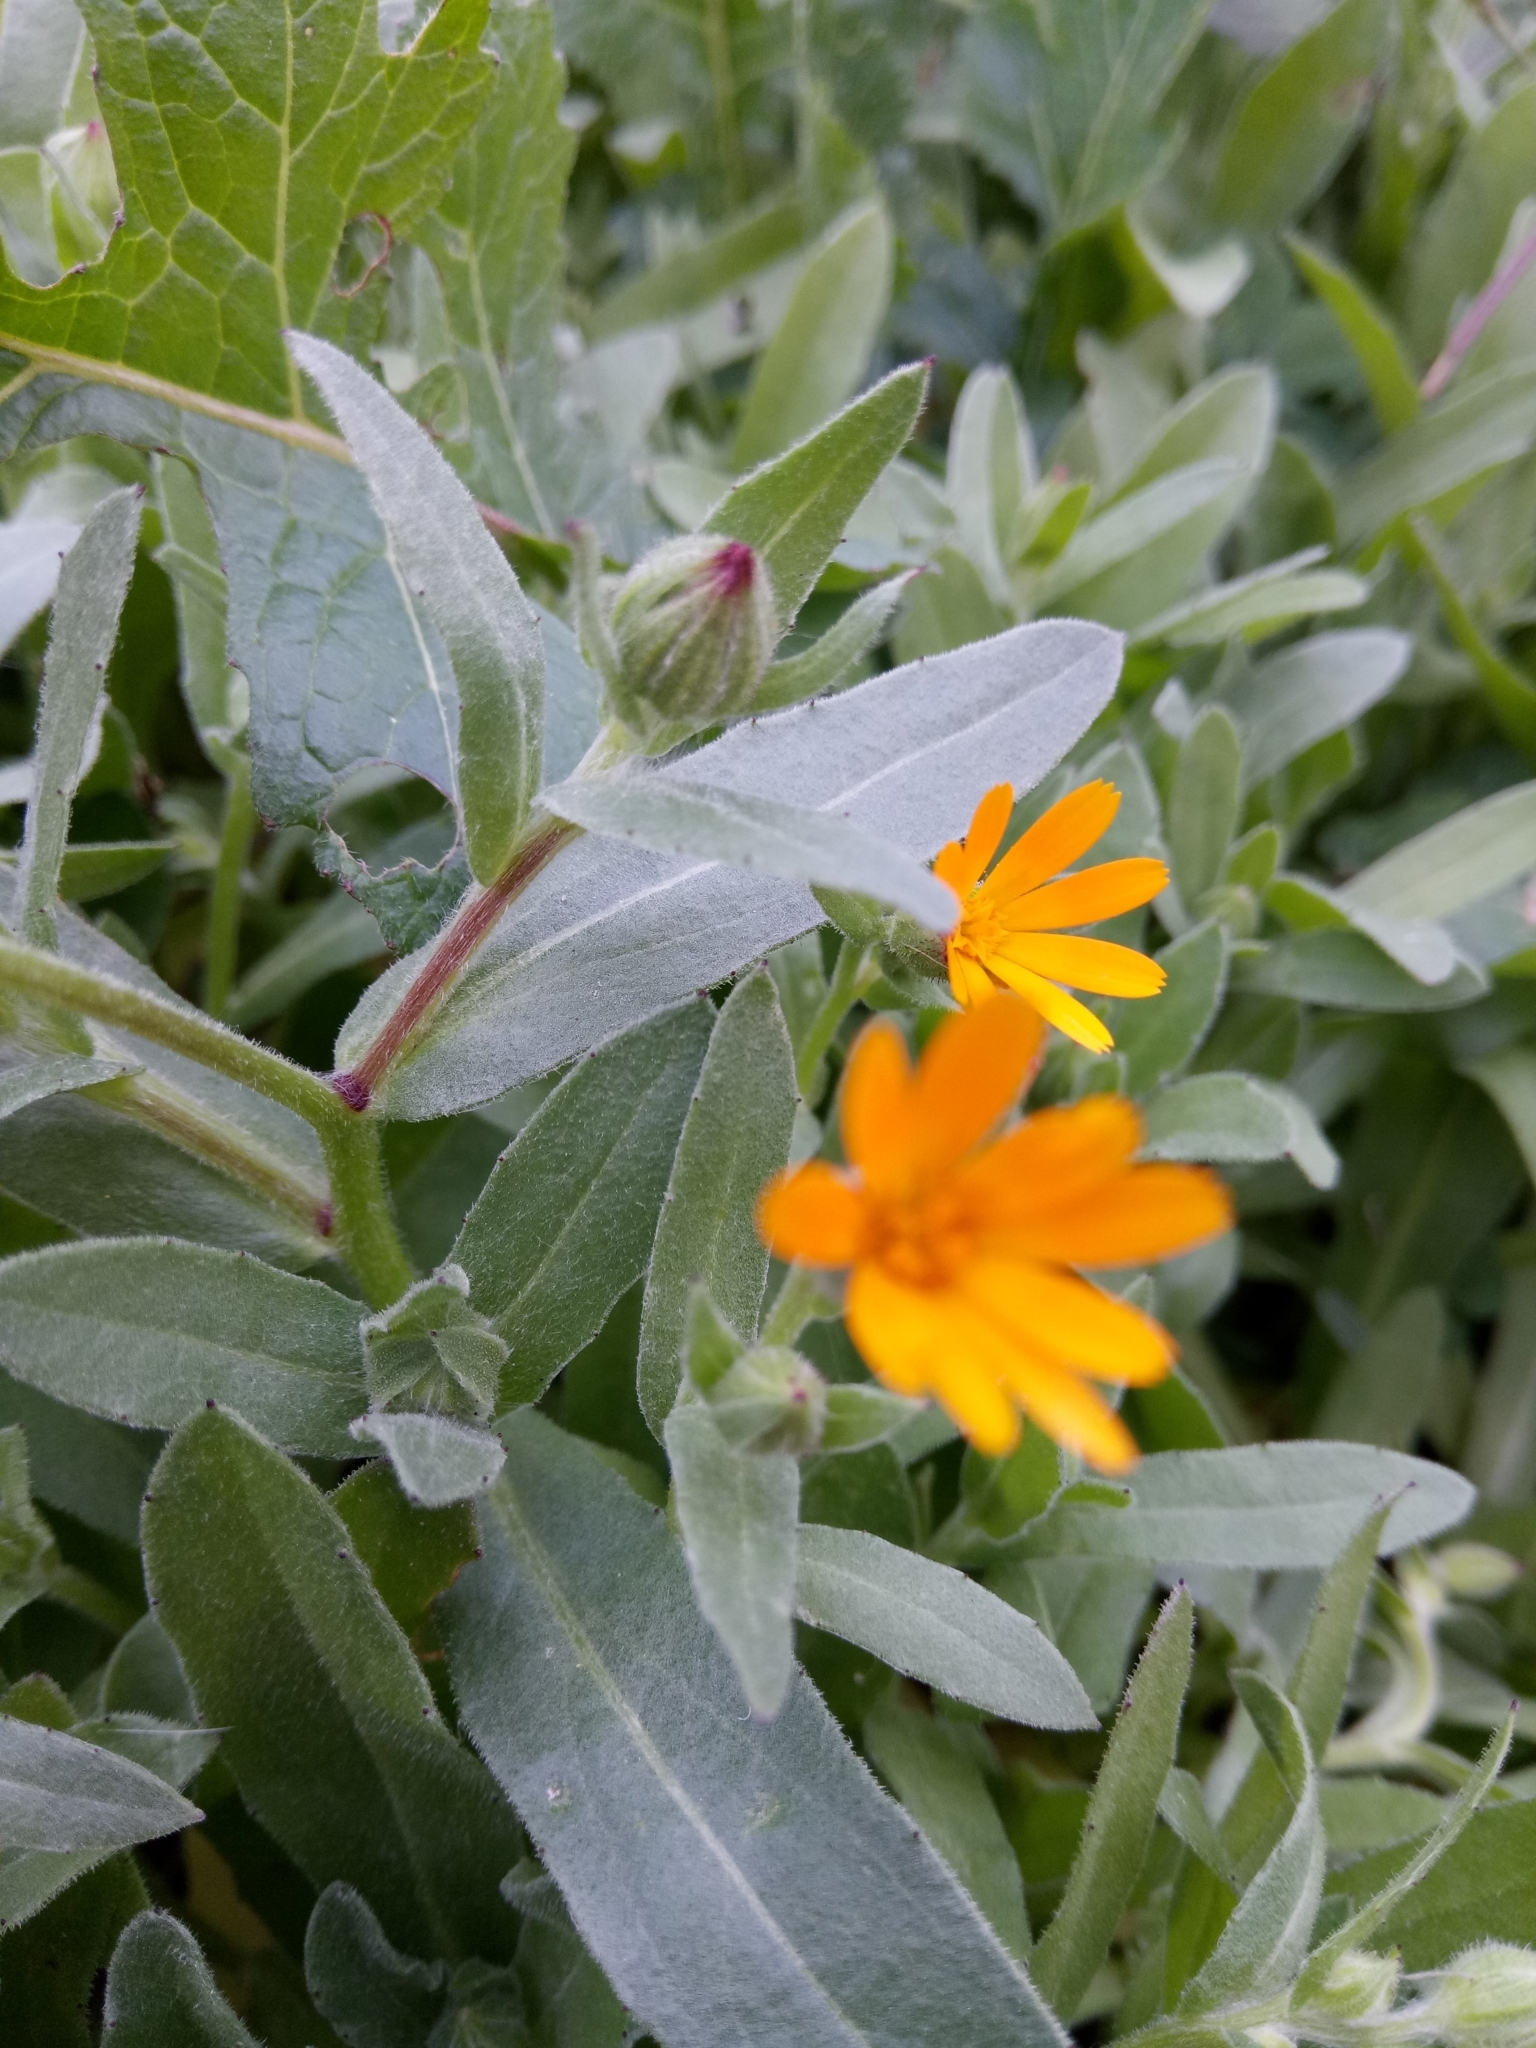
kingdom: Plantae
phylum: Tracheophyta
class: Magnoliopsida
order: Asterales
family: Asteraceae
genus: Calendula
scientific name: Calendula arvensis
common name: Field marigold
